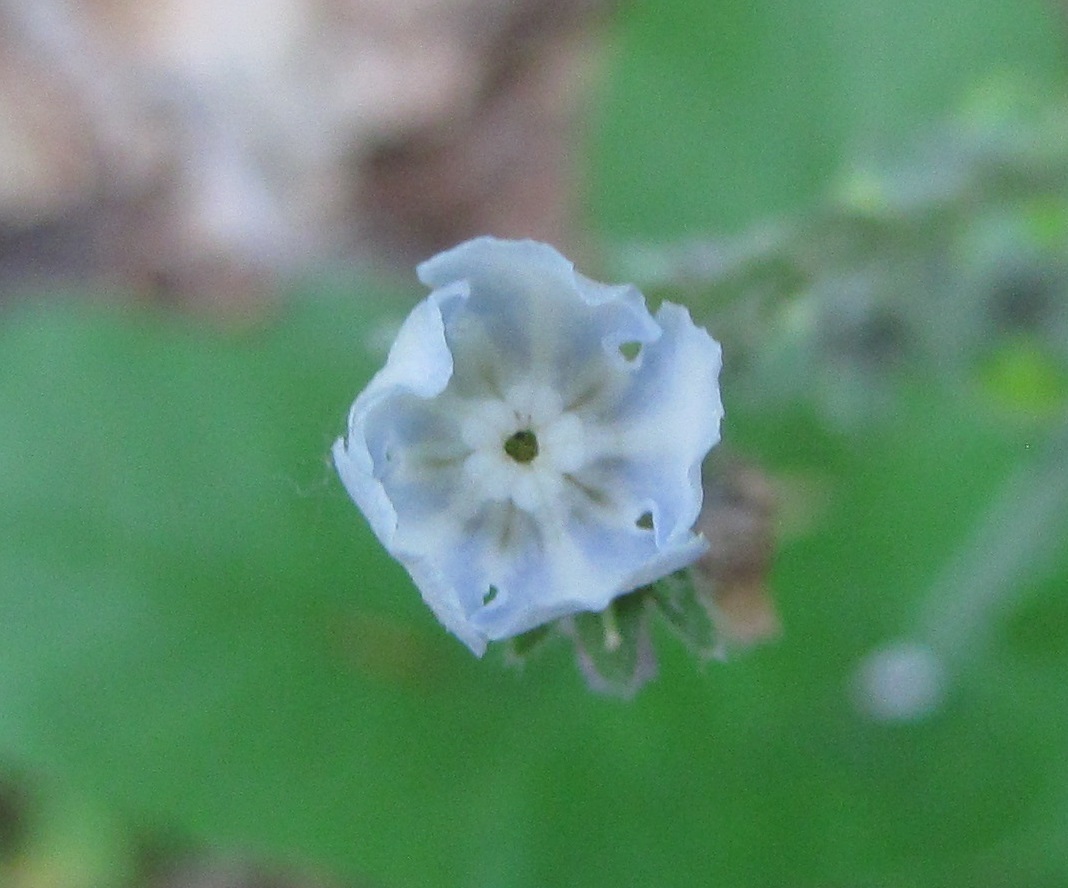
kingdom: Plantae
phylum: Tracheophyta
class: Magnoliopsida
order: Boraginales
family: Boraginaceae
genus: Andersonglossum
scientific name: Andersonglossum virginianum
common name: Wild comfrey
